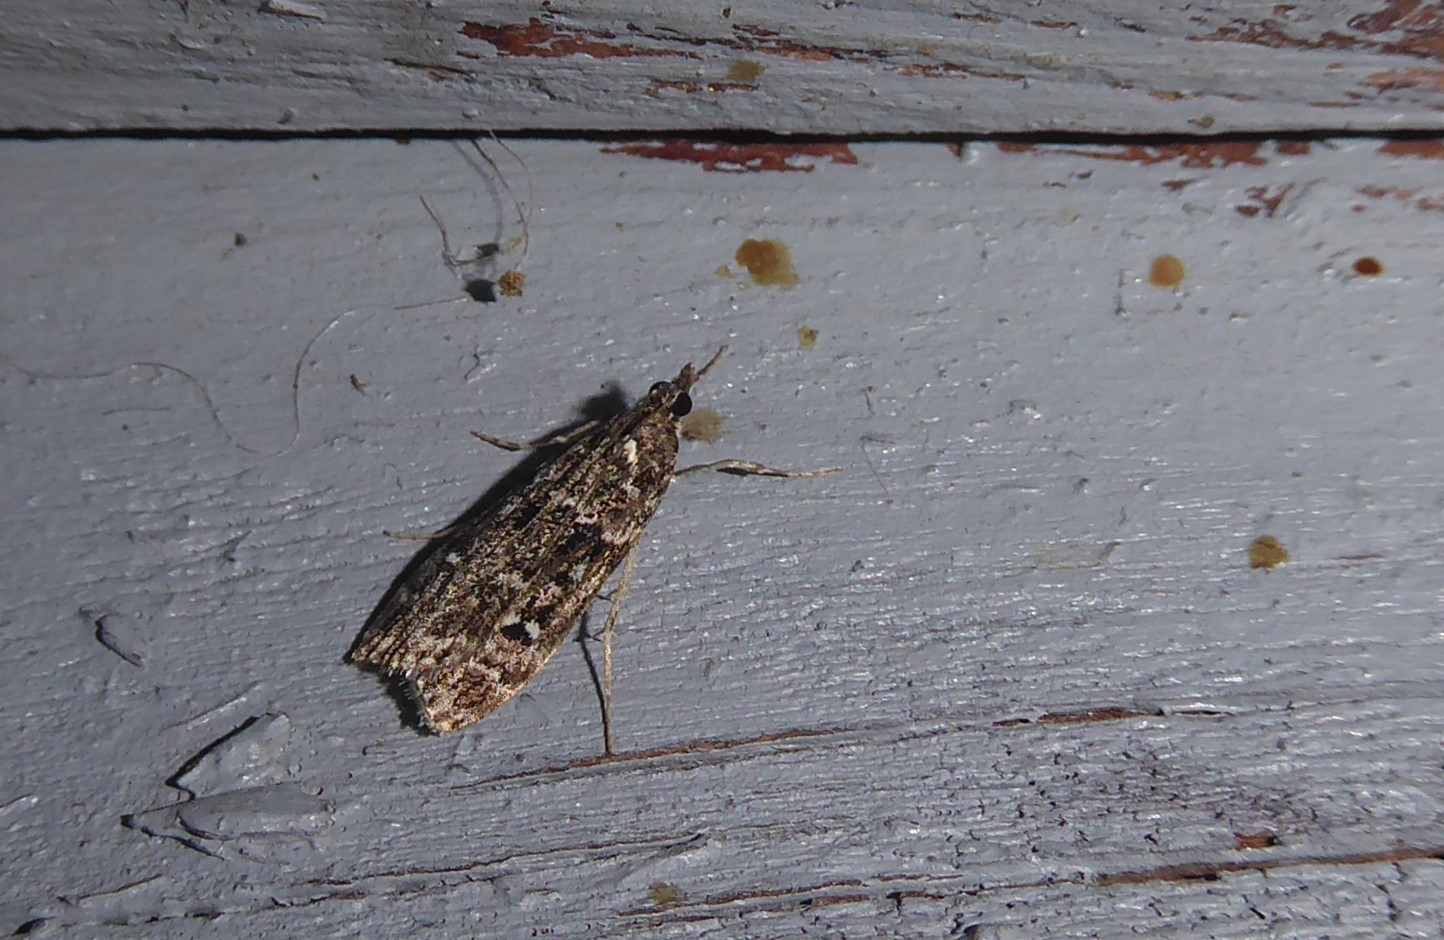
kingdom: Animalia
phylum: Arthropoda
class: Insecta
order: Lepidoptera
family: Crambidae
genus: Eudonia
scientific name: Eudonia philerga
